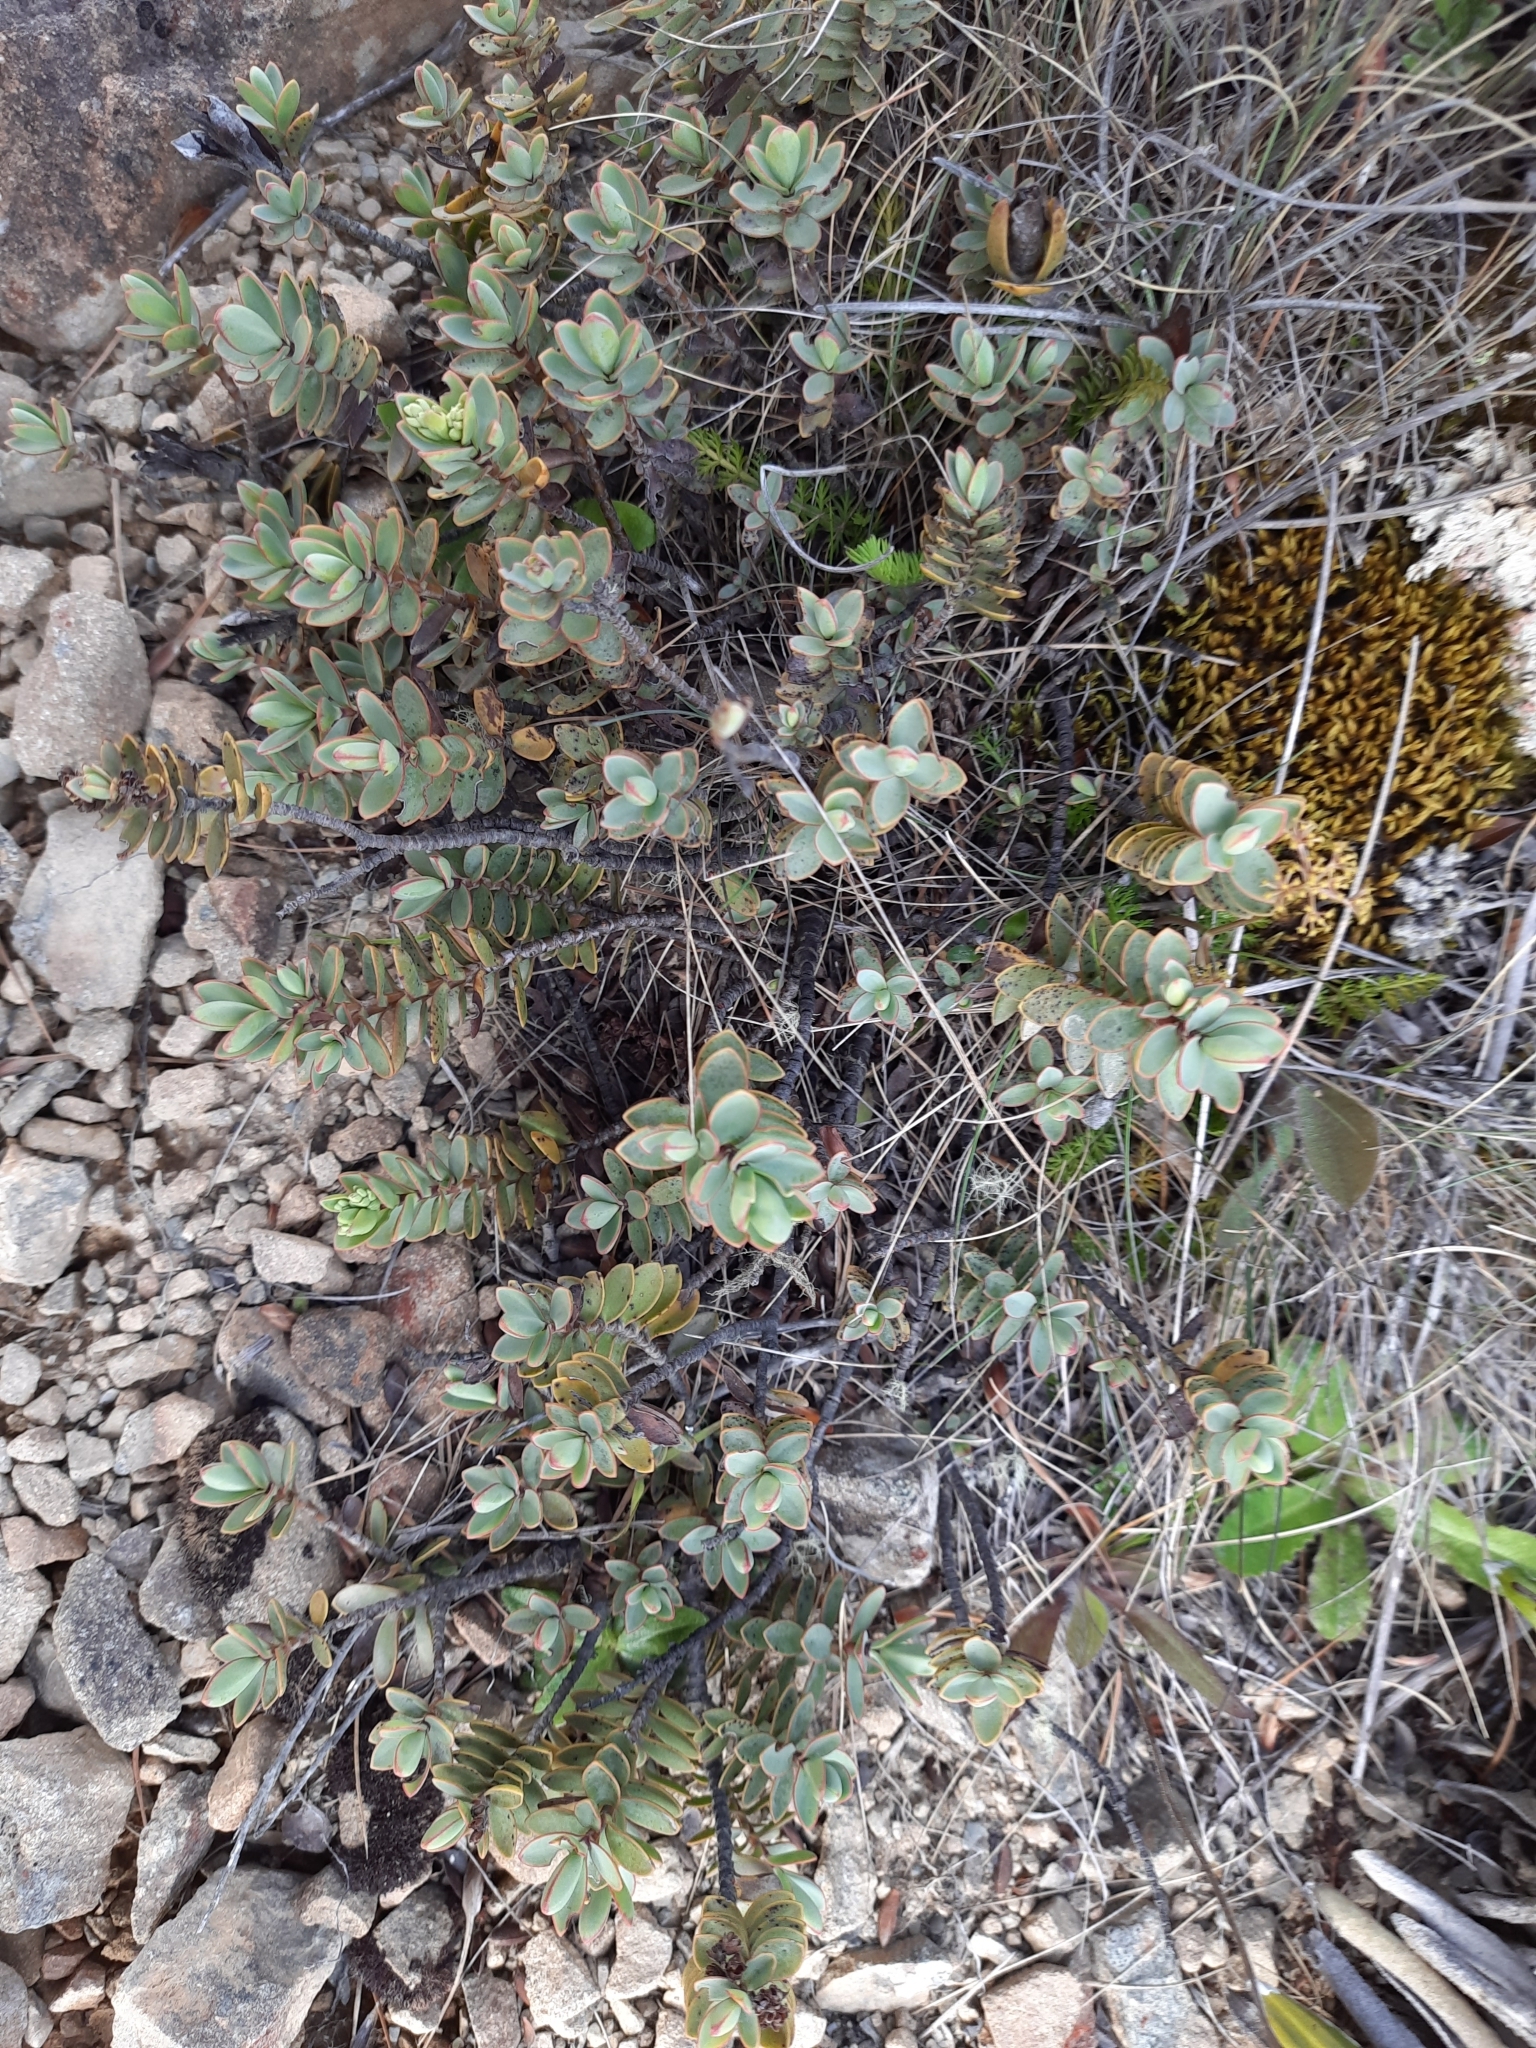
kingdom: Plantae
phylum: Tracheophyta
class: Magnoliopsida
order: Lamiales
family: Plantaginaceae
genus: Veronica
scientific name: Veronica pinguifolia
